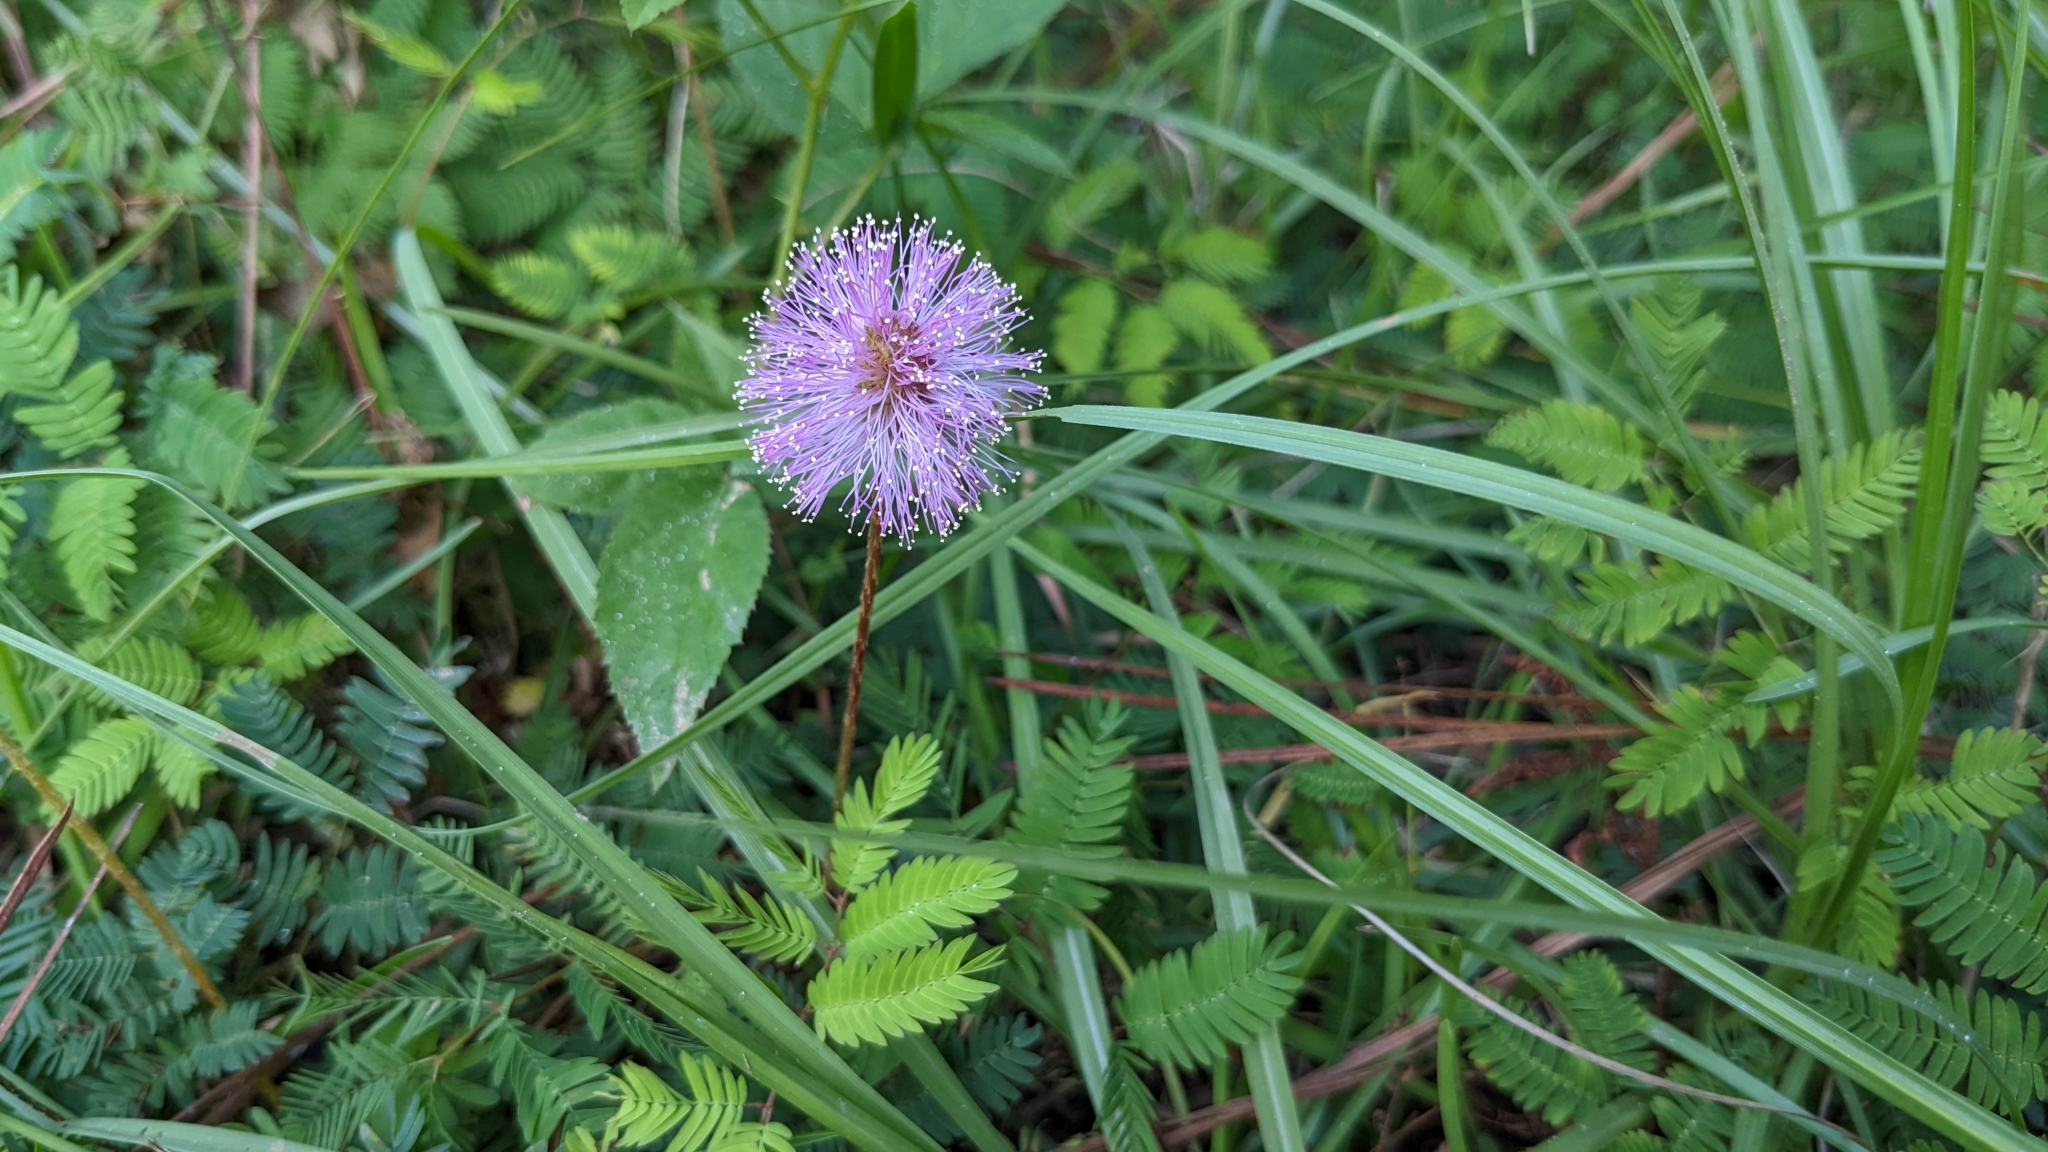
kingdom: Plantae
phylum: Tracheophyta
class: Magnoliopsida
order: Fabales
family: Fabaceae
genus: Mimosa
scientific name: Mimosa strigillosa
